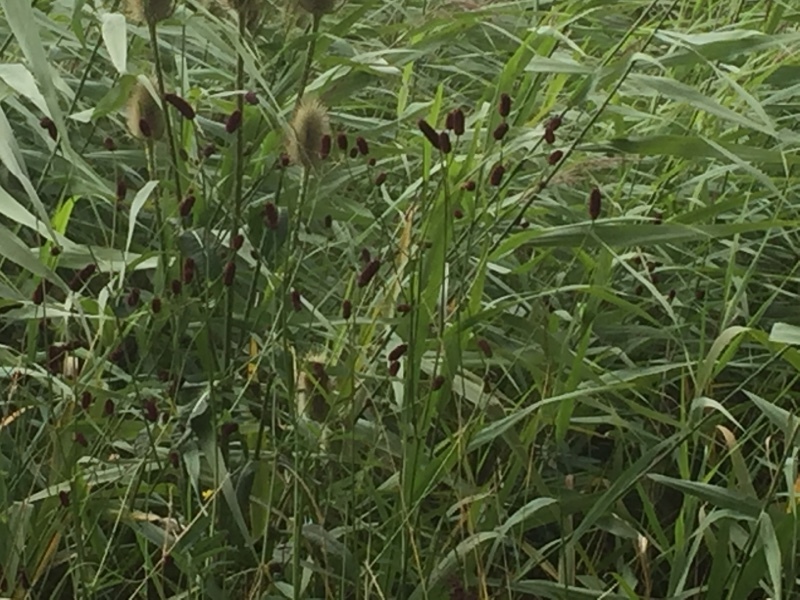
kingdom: Plantae
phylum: Tracheophyta
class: Magnoliopsida
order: Rosales
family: Rosaceae
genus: Sanguisorba
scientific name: Sanguisorba officinalis
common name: Great burnet
